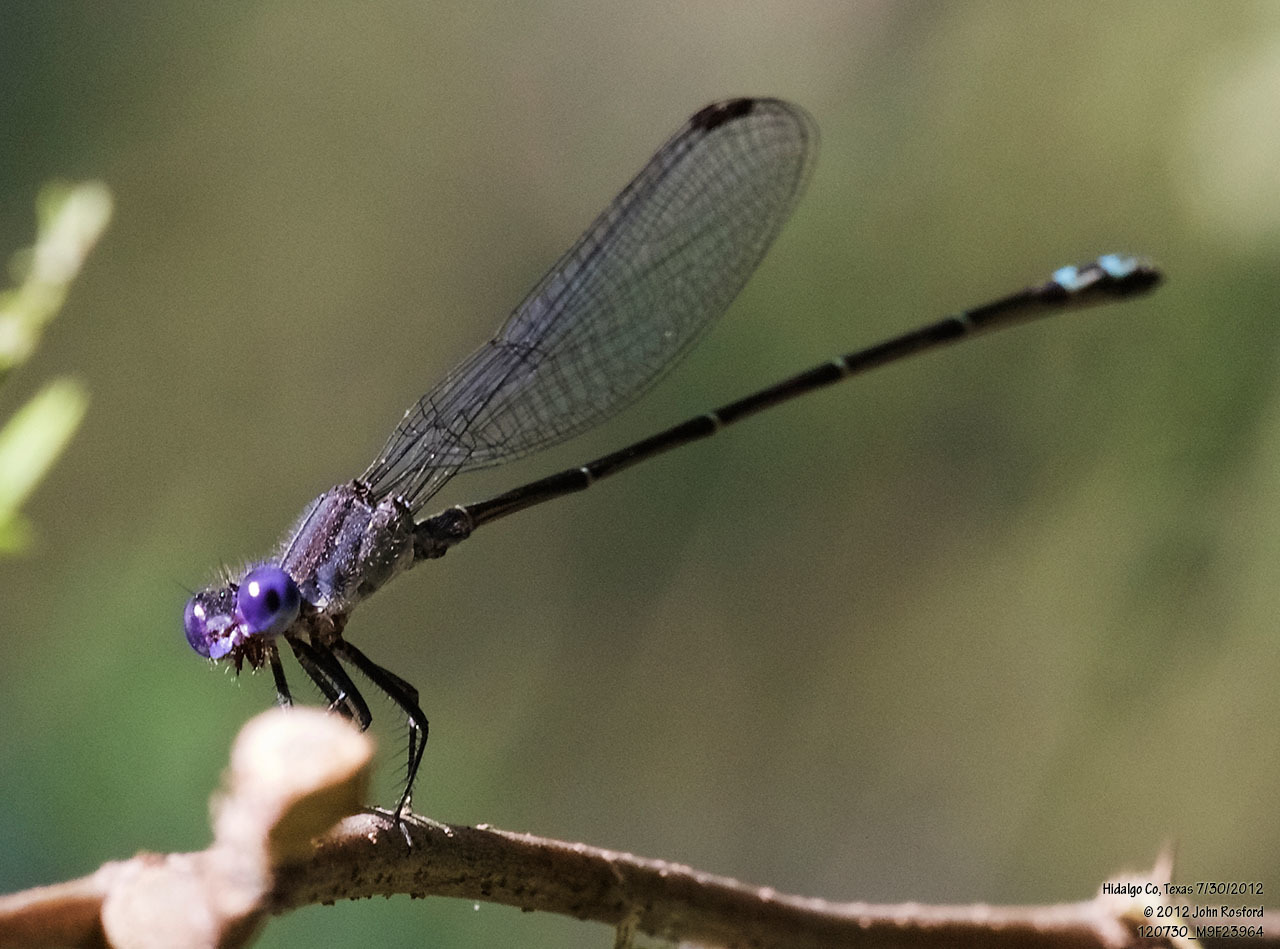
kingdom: Animalia
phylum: Arthropoda
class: Insecta
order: Odonata
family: Coenagrionidae
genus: Argia
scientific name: Argia translata
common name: Dusky dancer
